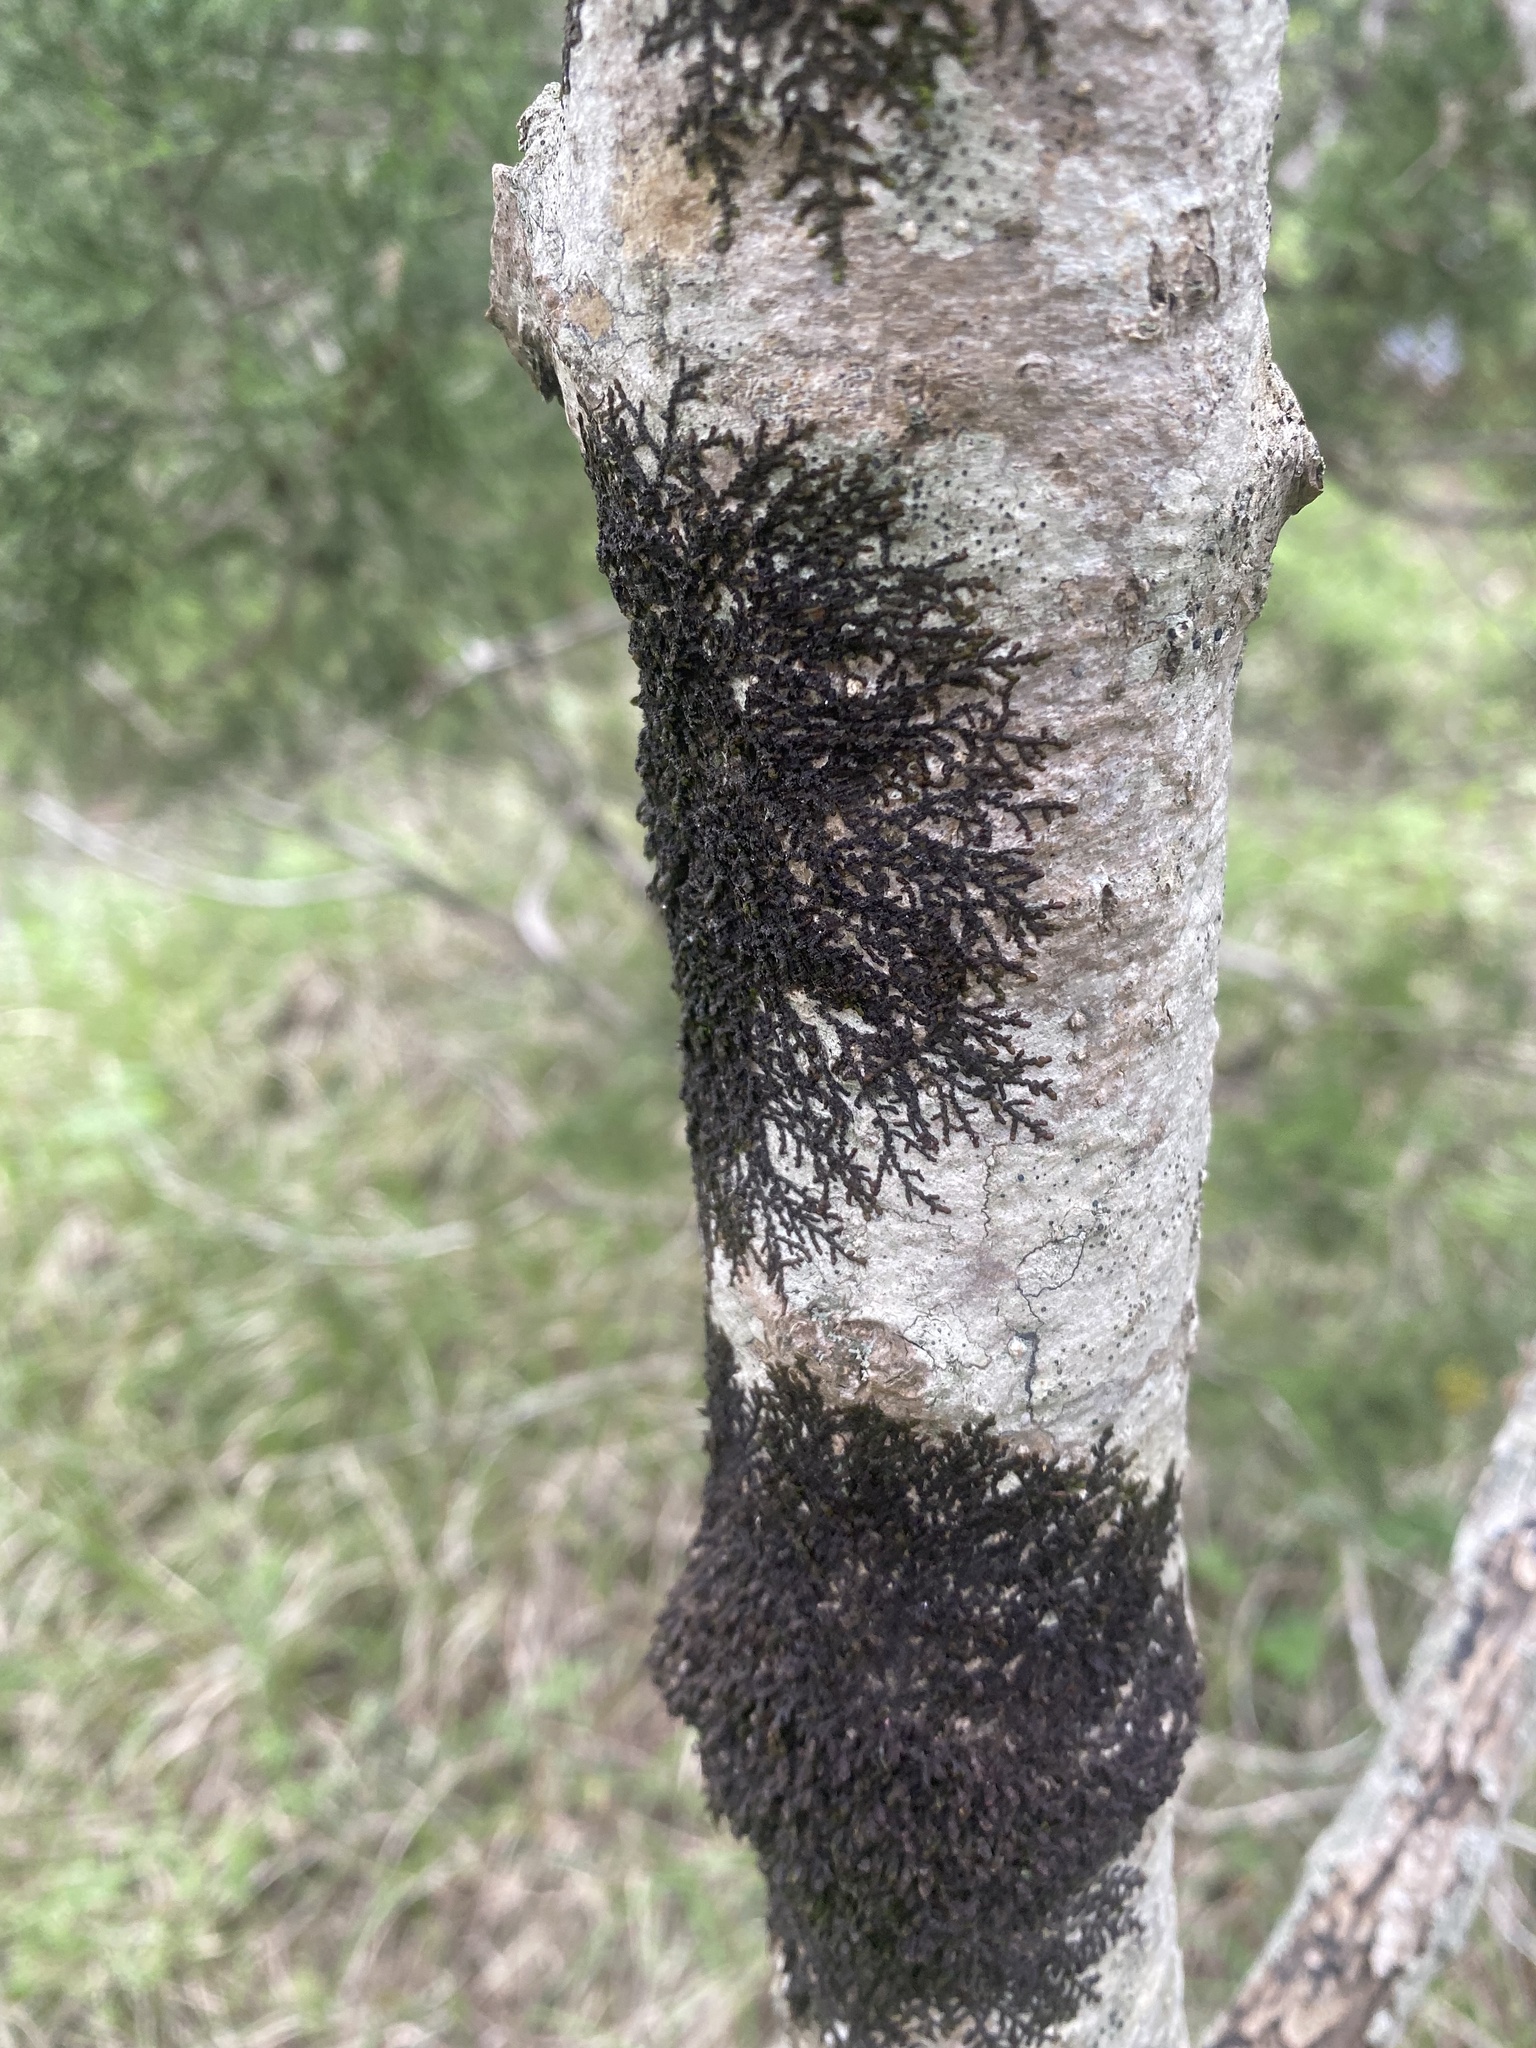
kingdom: Plantae
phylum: Marchantiophyta
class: Jungermanniopsida
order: Porellales
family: Frullaniaceae
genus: Frullania
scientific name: Frullania dilatata
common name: Dilated scalewort
